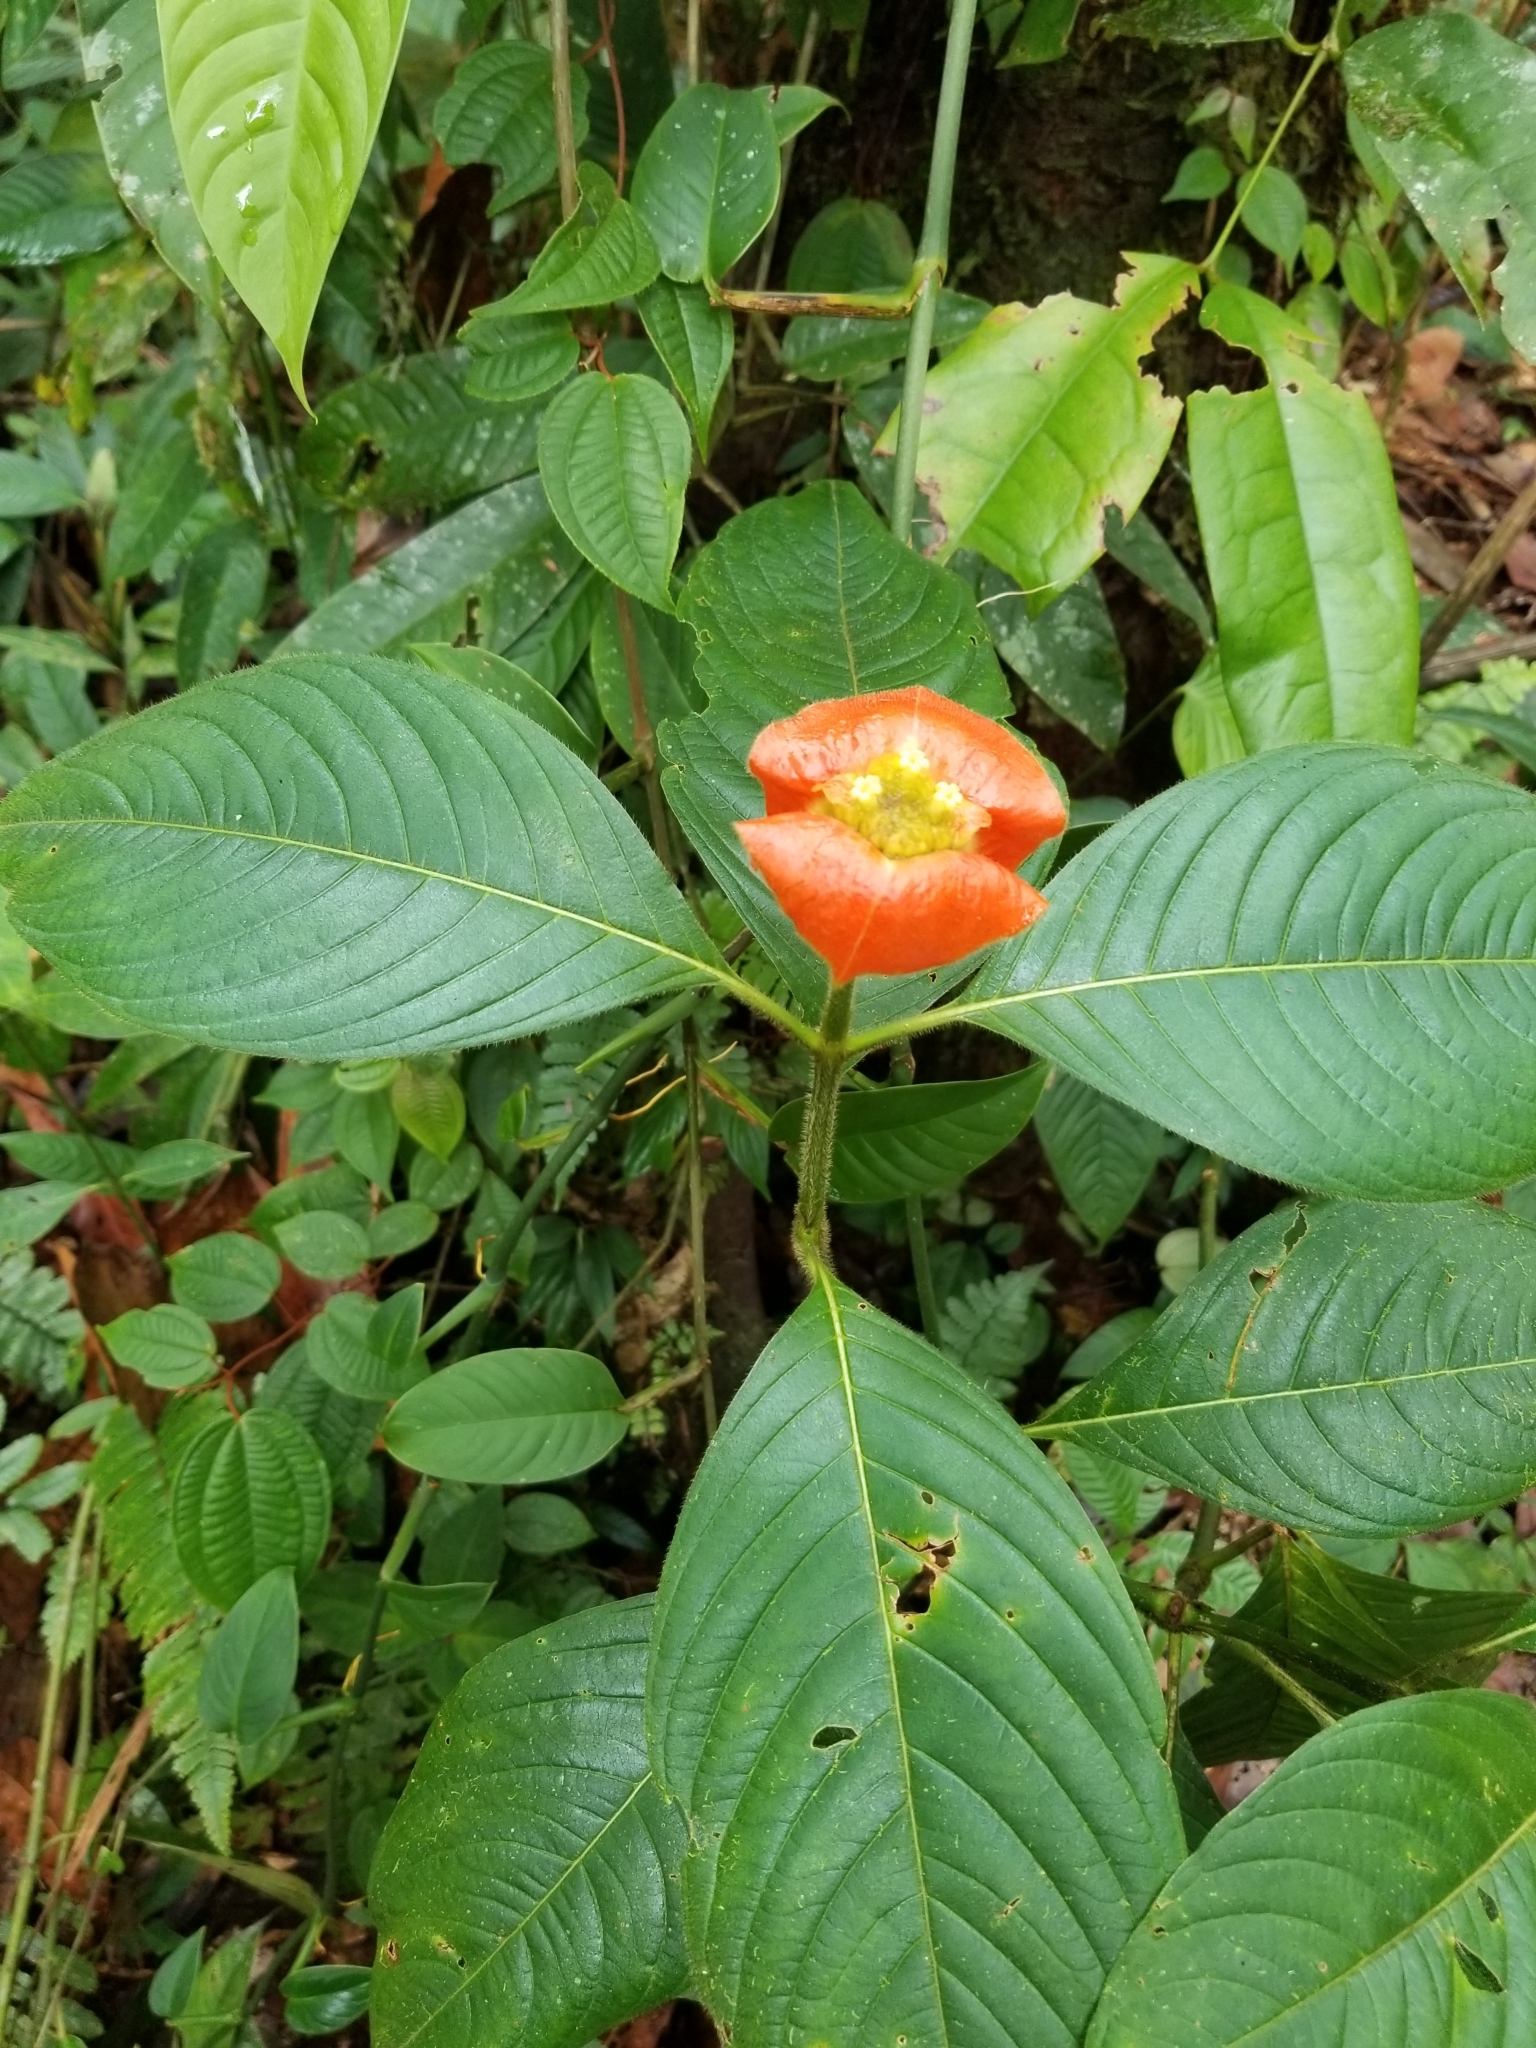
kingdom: Plantae
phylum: Tracheophyta
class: Magnoliopsida
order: Gentianales
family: Rubiaceae
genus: Palicourea
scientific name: Palicourea tomentosa
